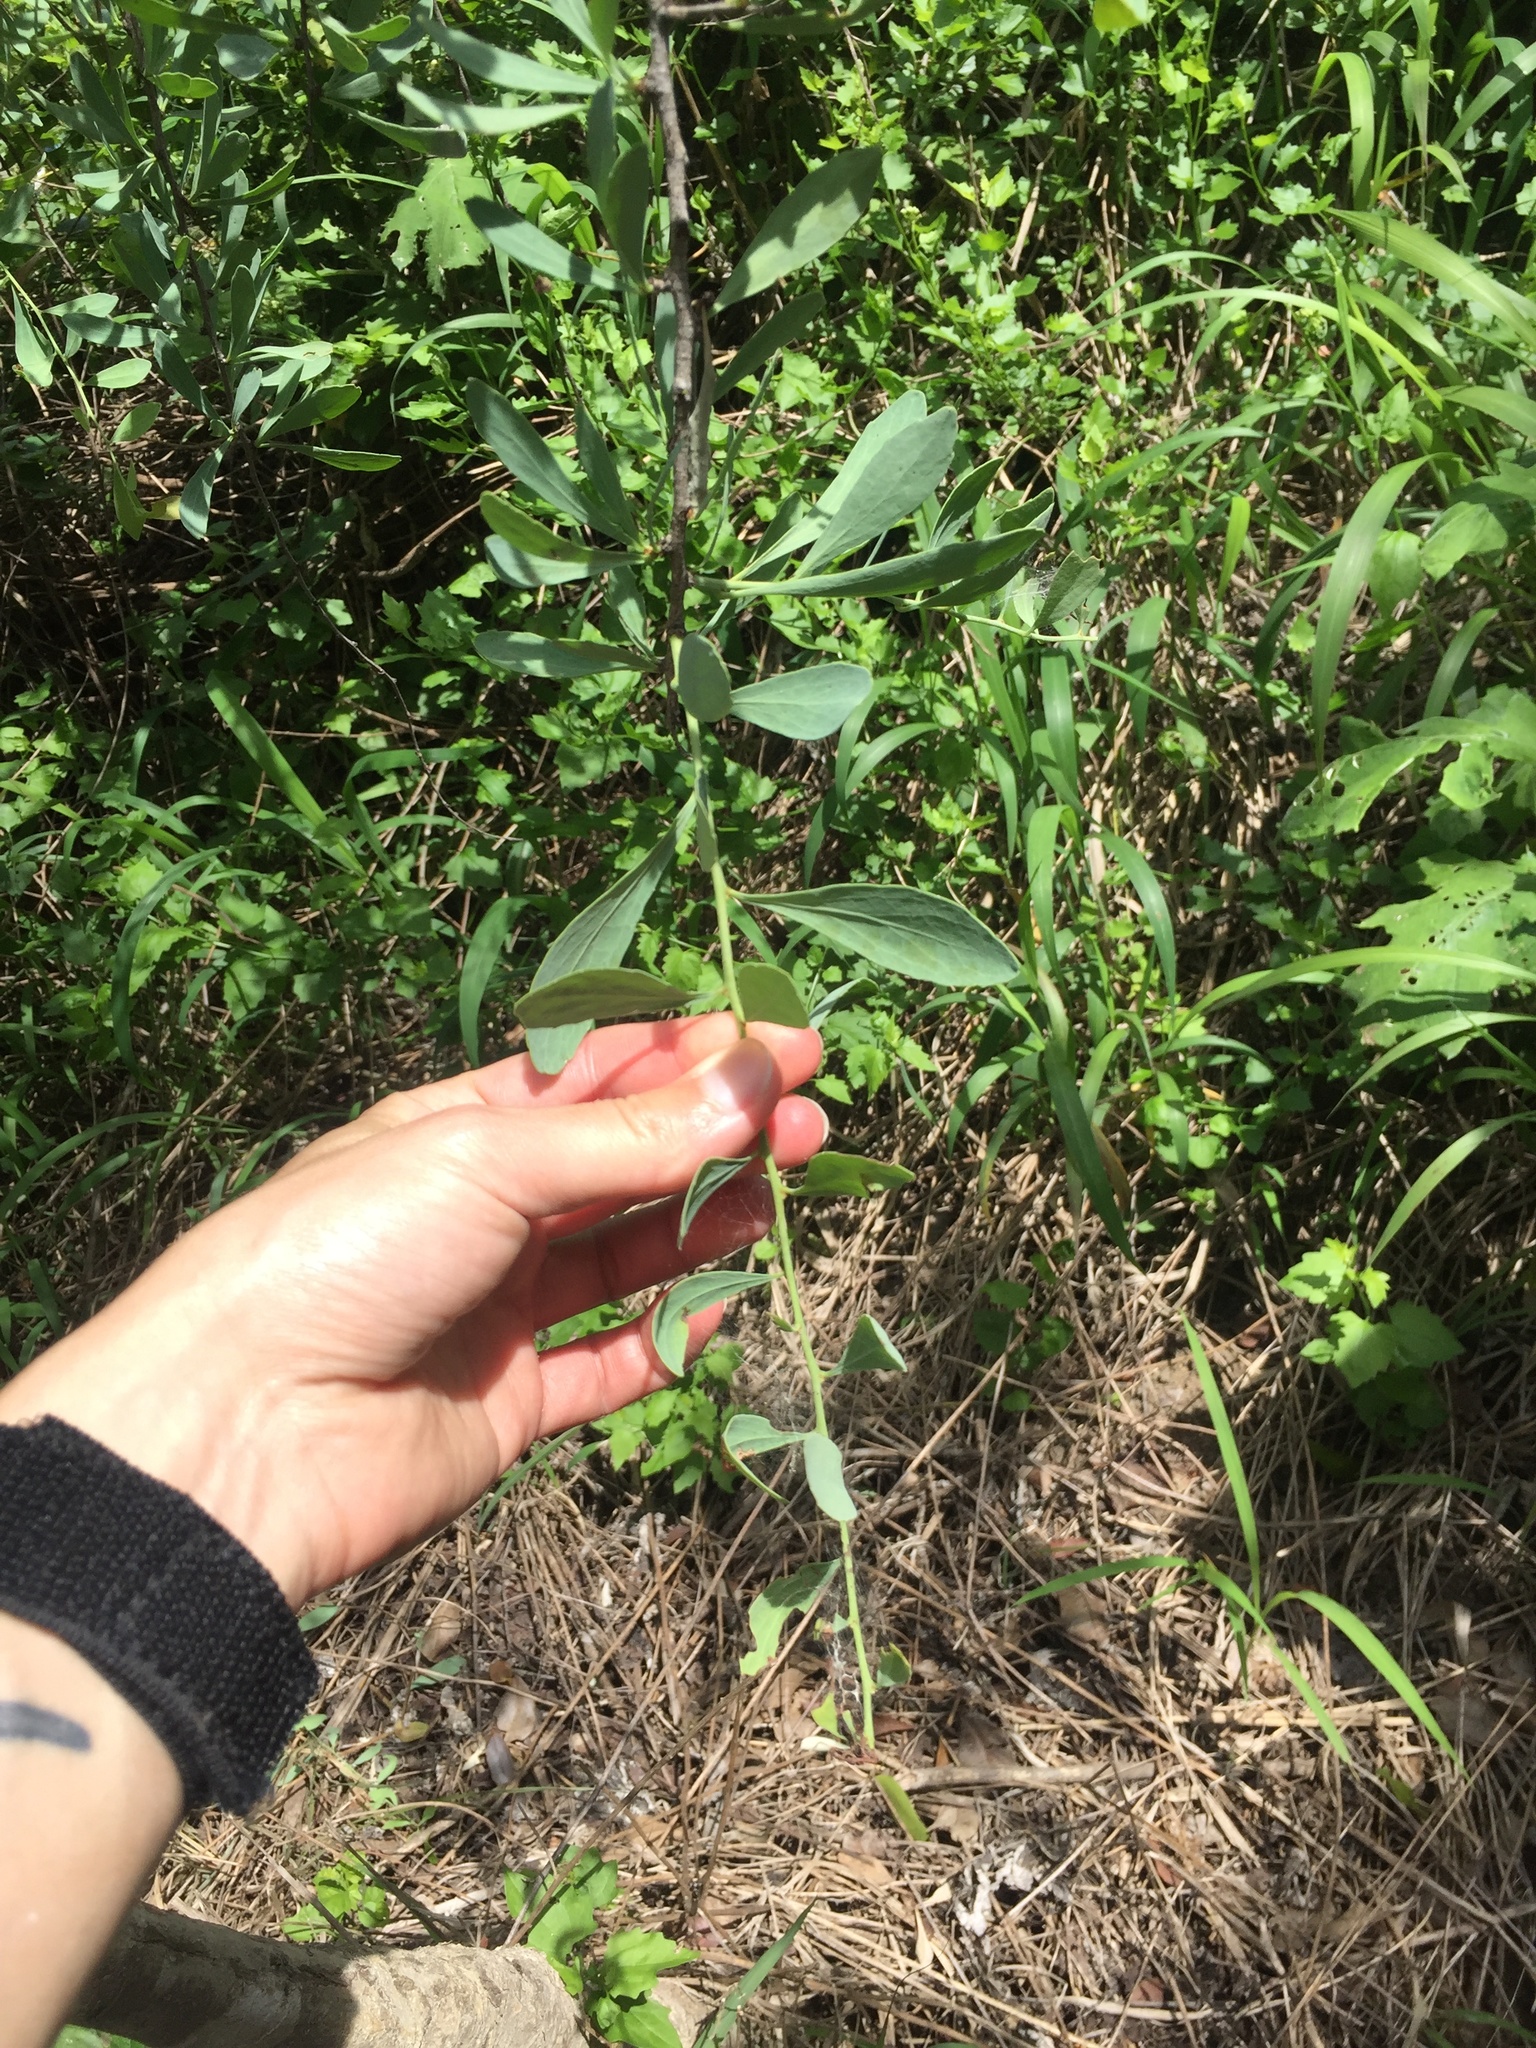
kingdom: Plantae
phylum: Tracheophyta
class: Magnoliopsida
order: Celastrales
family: Celastraceae
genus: Gymnosporia
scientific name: Gymnosporia glaucophylla
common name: Blue spike-thorn
